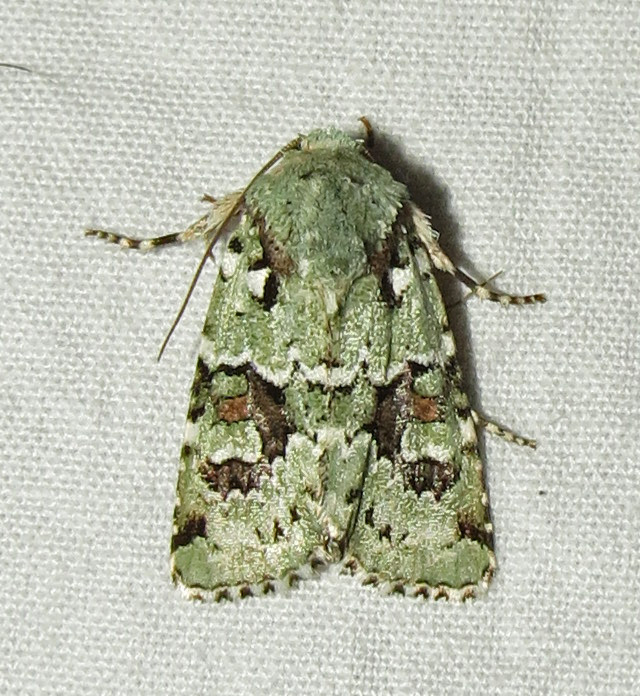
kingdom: Animalia
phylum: Arthropoda
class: Insecta
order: Lepidoptera
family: Noctuidae
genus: Lacinipolia
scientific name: Lacinipolia laudabilis
